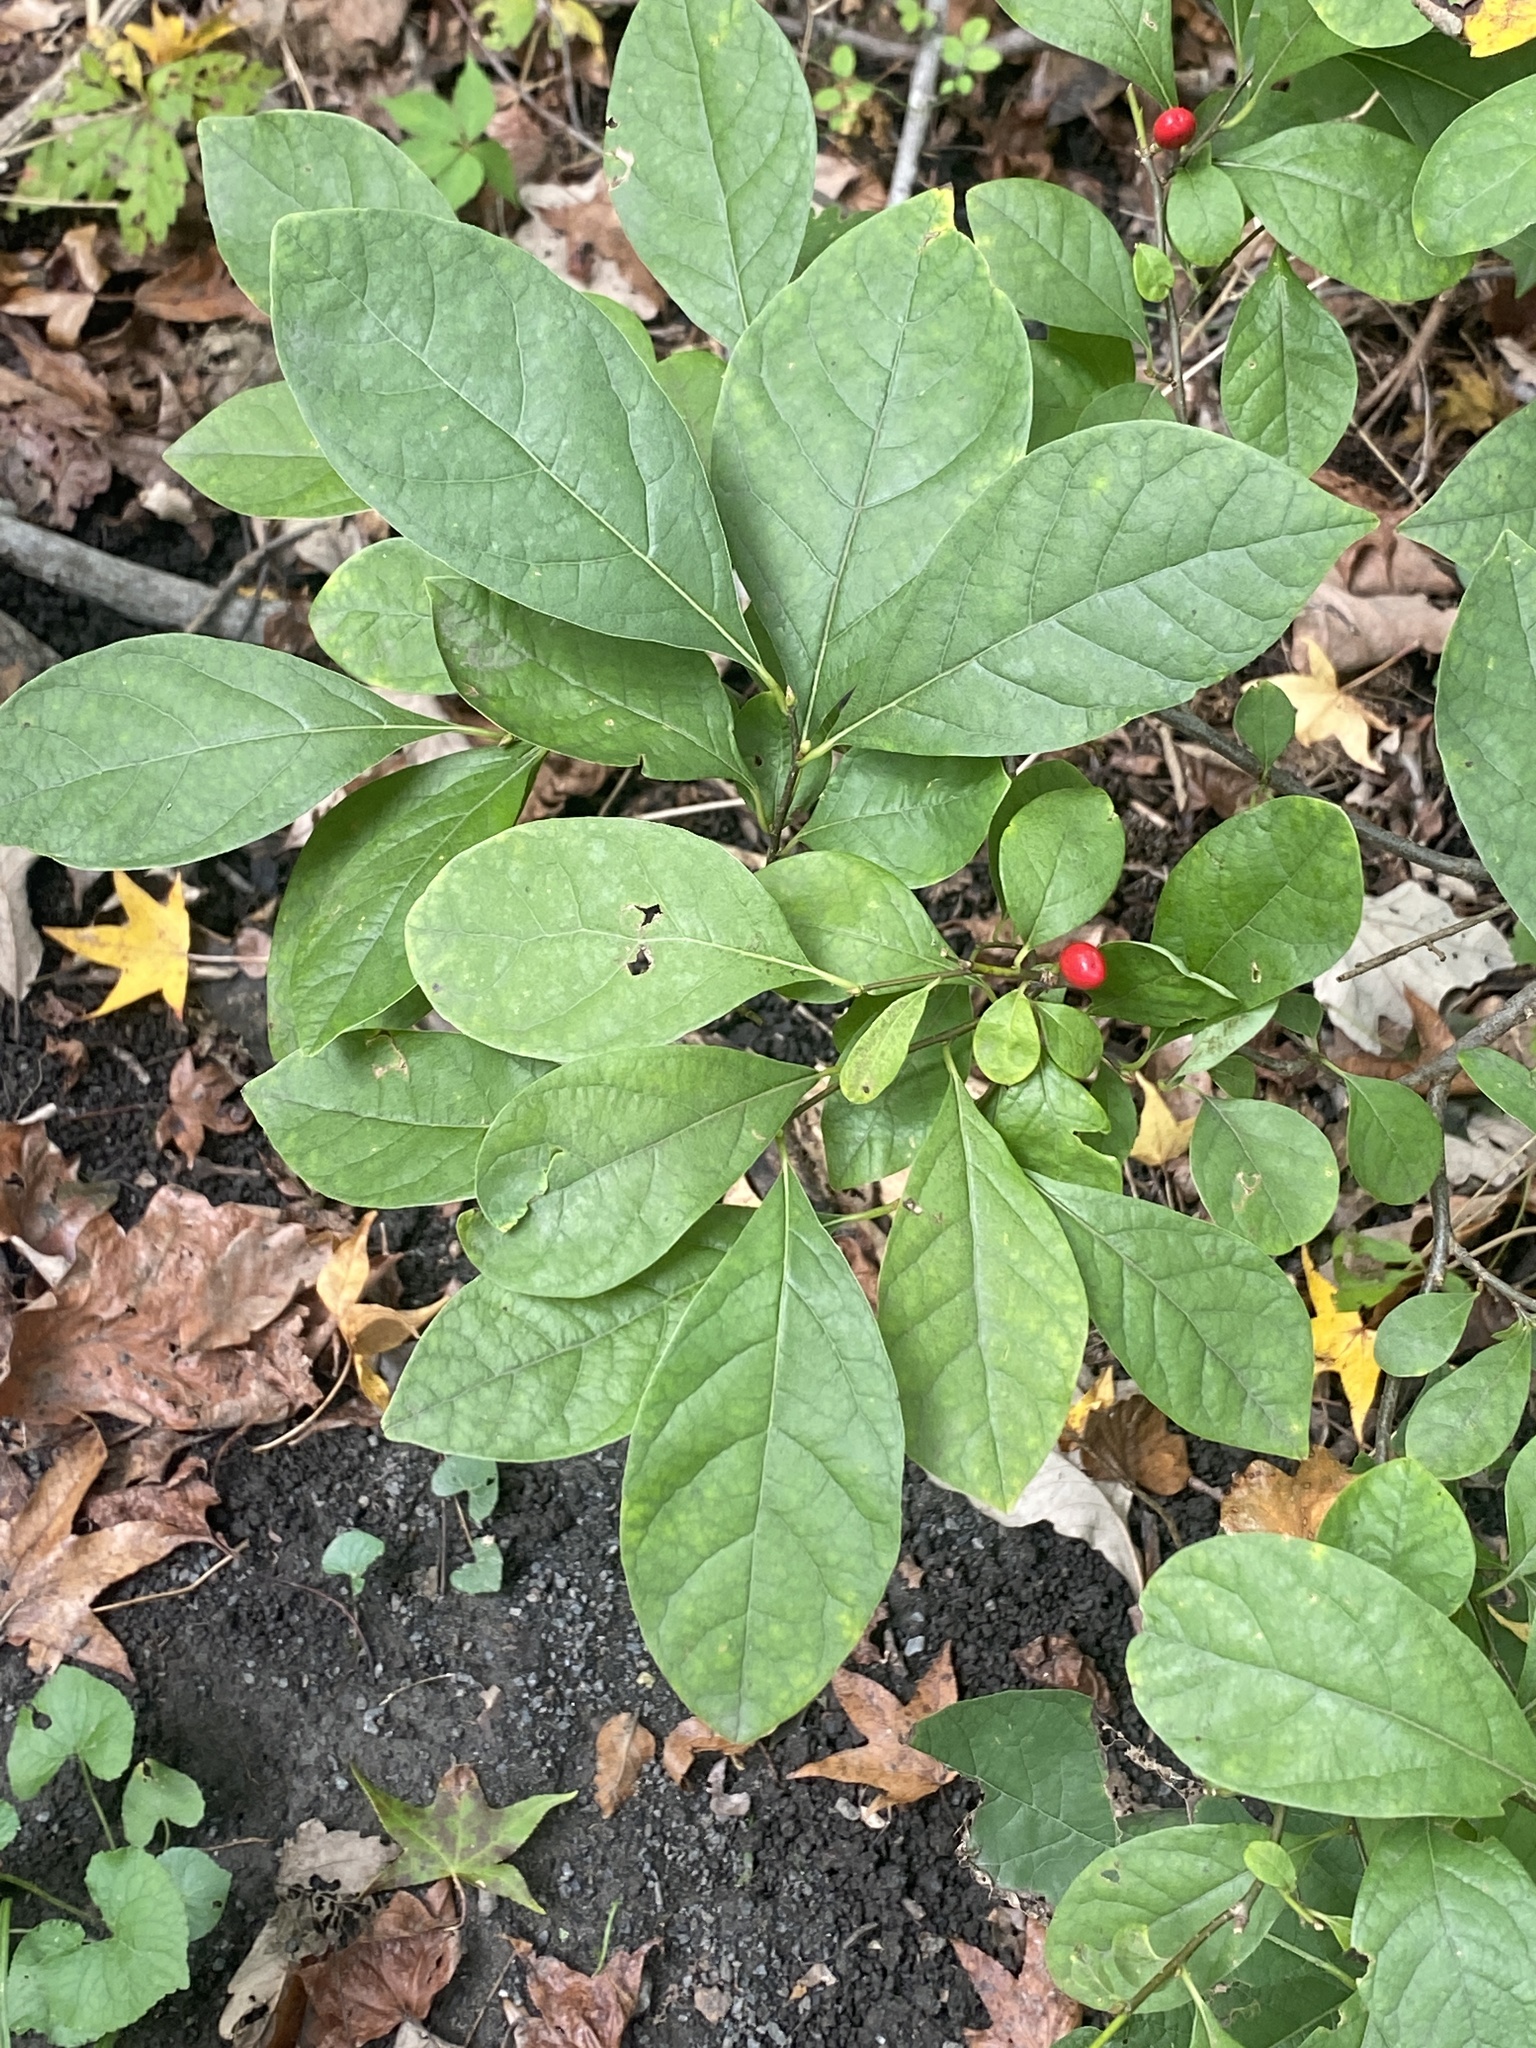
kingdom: Plantae
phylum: Tracheophyta
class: Magnoliopsida
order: Laurales
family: Lauraceae
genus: Lindera
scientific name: Lindera benzoin
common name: Spicebush
